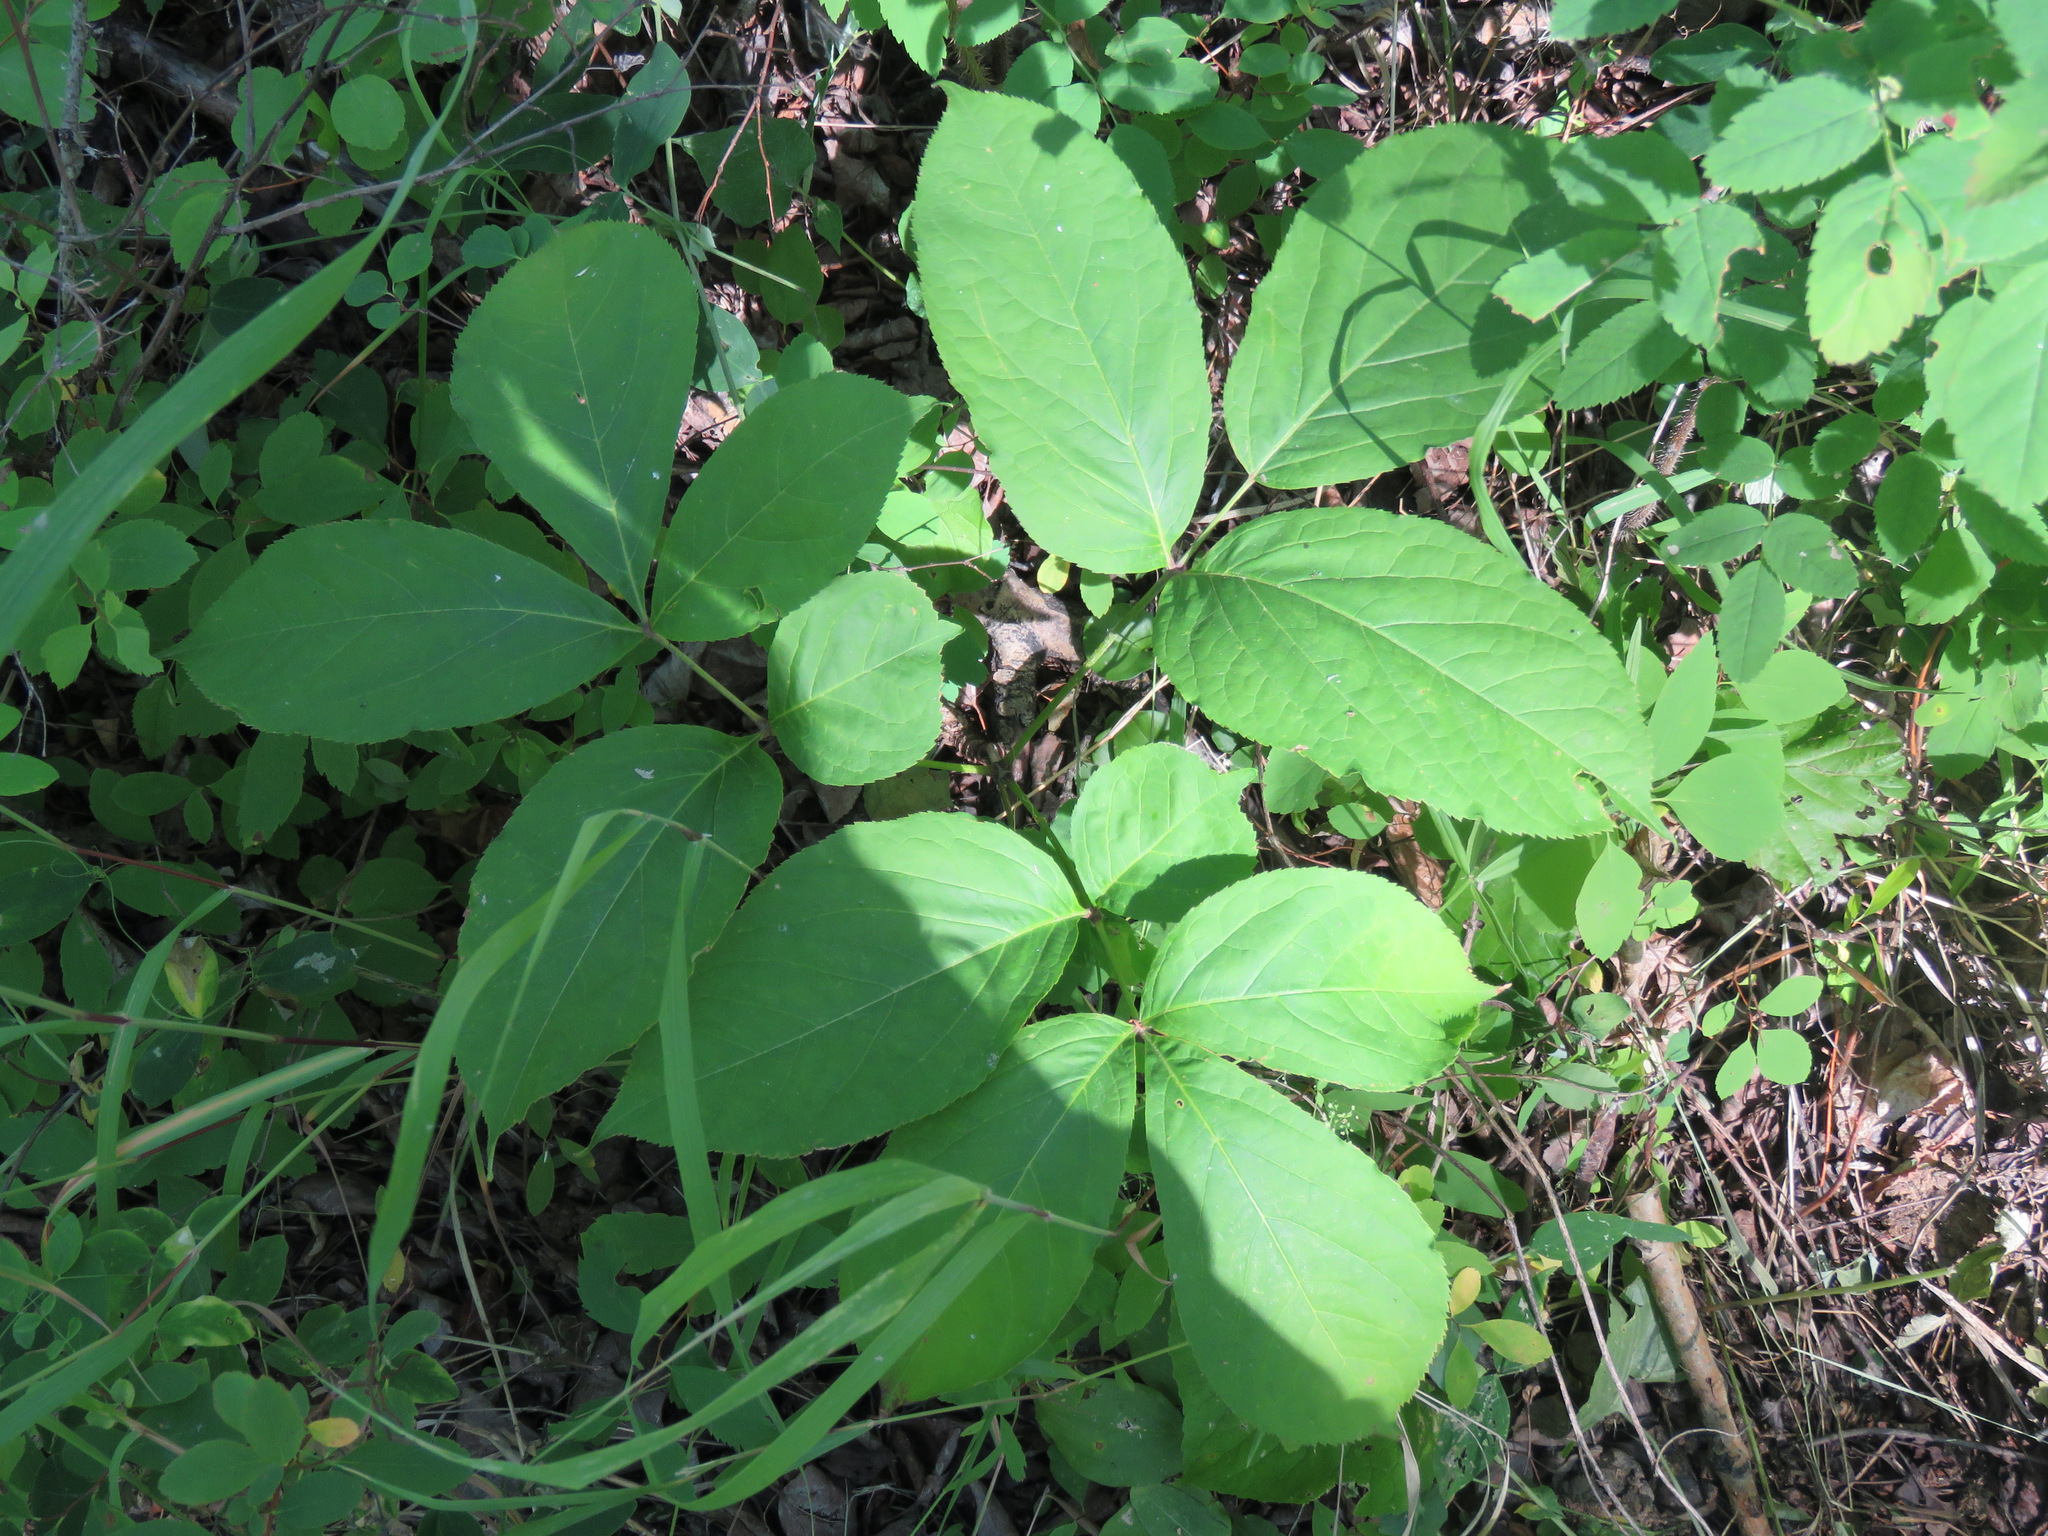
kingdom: Plantae
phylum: Tracheophyta
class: Magnoliopsida
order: Apiales
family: Araliaceae
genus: Aralia
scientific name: Aralia nudicaulis
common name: Wild sarsaparilla
